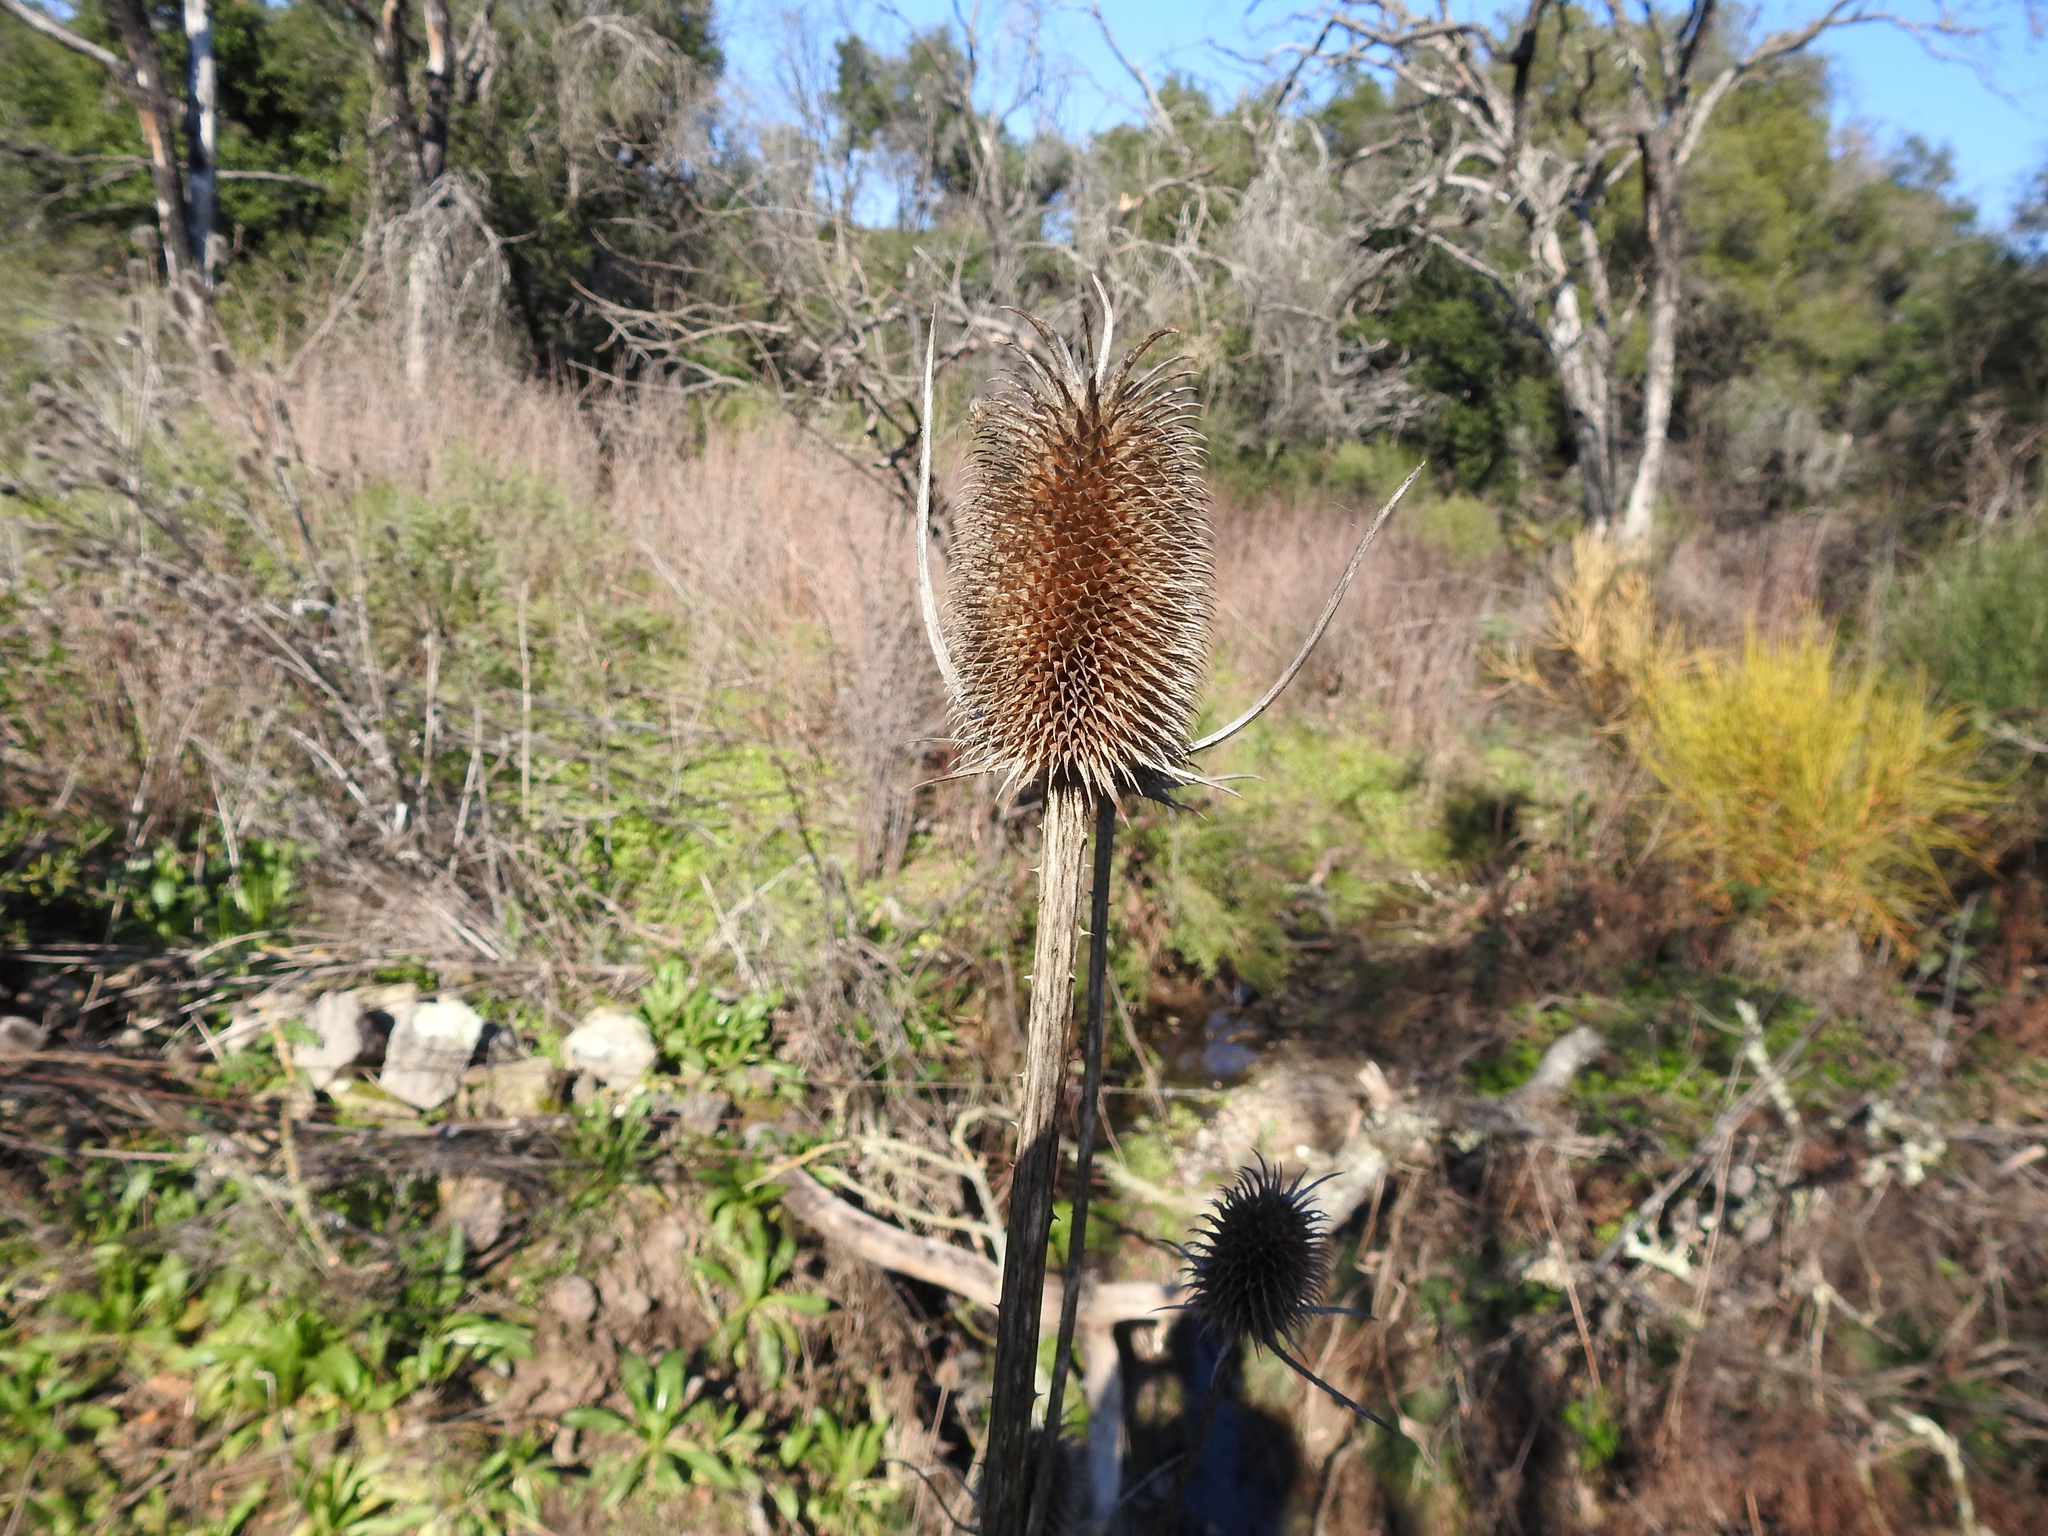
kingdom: Plantae
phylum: Tracheophyta
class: Magnoliopsida
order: Dipsacales
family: Caprifoliaceae
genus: Dipsacus
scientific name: Dipsacus sativus
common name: Fuller's teasel
